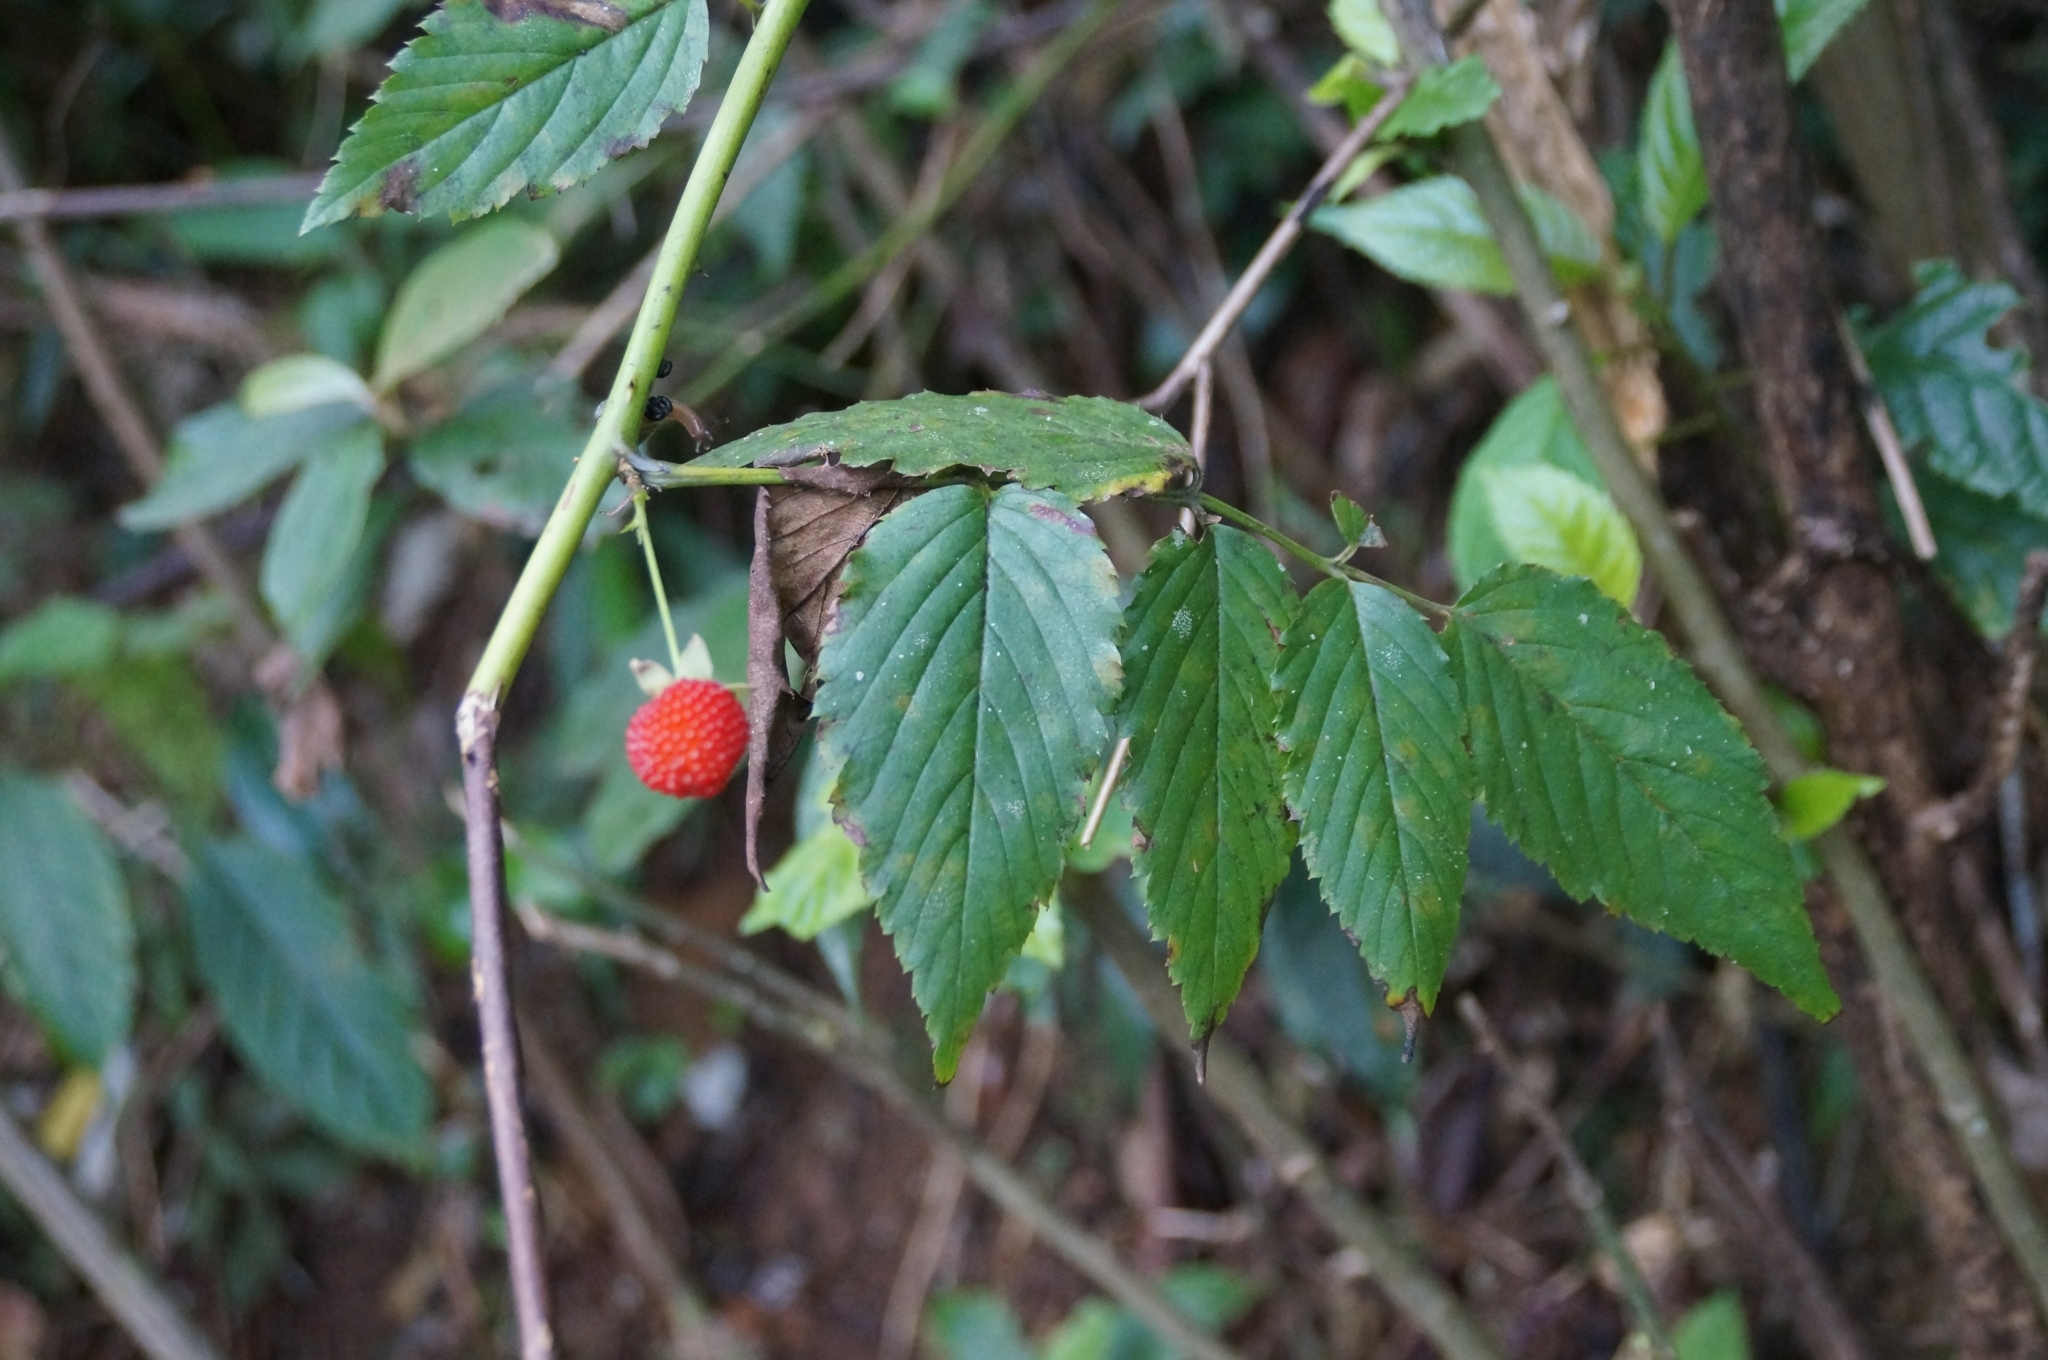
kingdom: Plantae
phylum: Tracheophyta
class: Magnoliopsida
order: Rosales
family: Rosaceae
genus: Rubus
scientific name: Rubus probus
